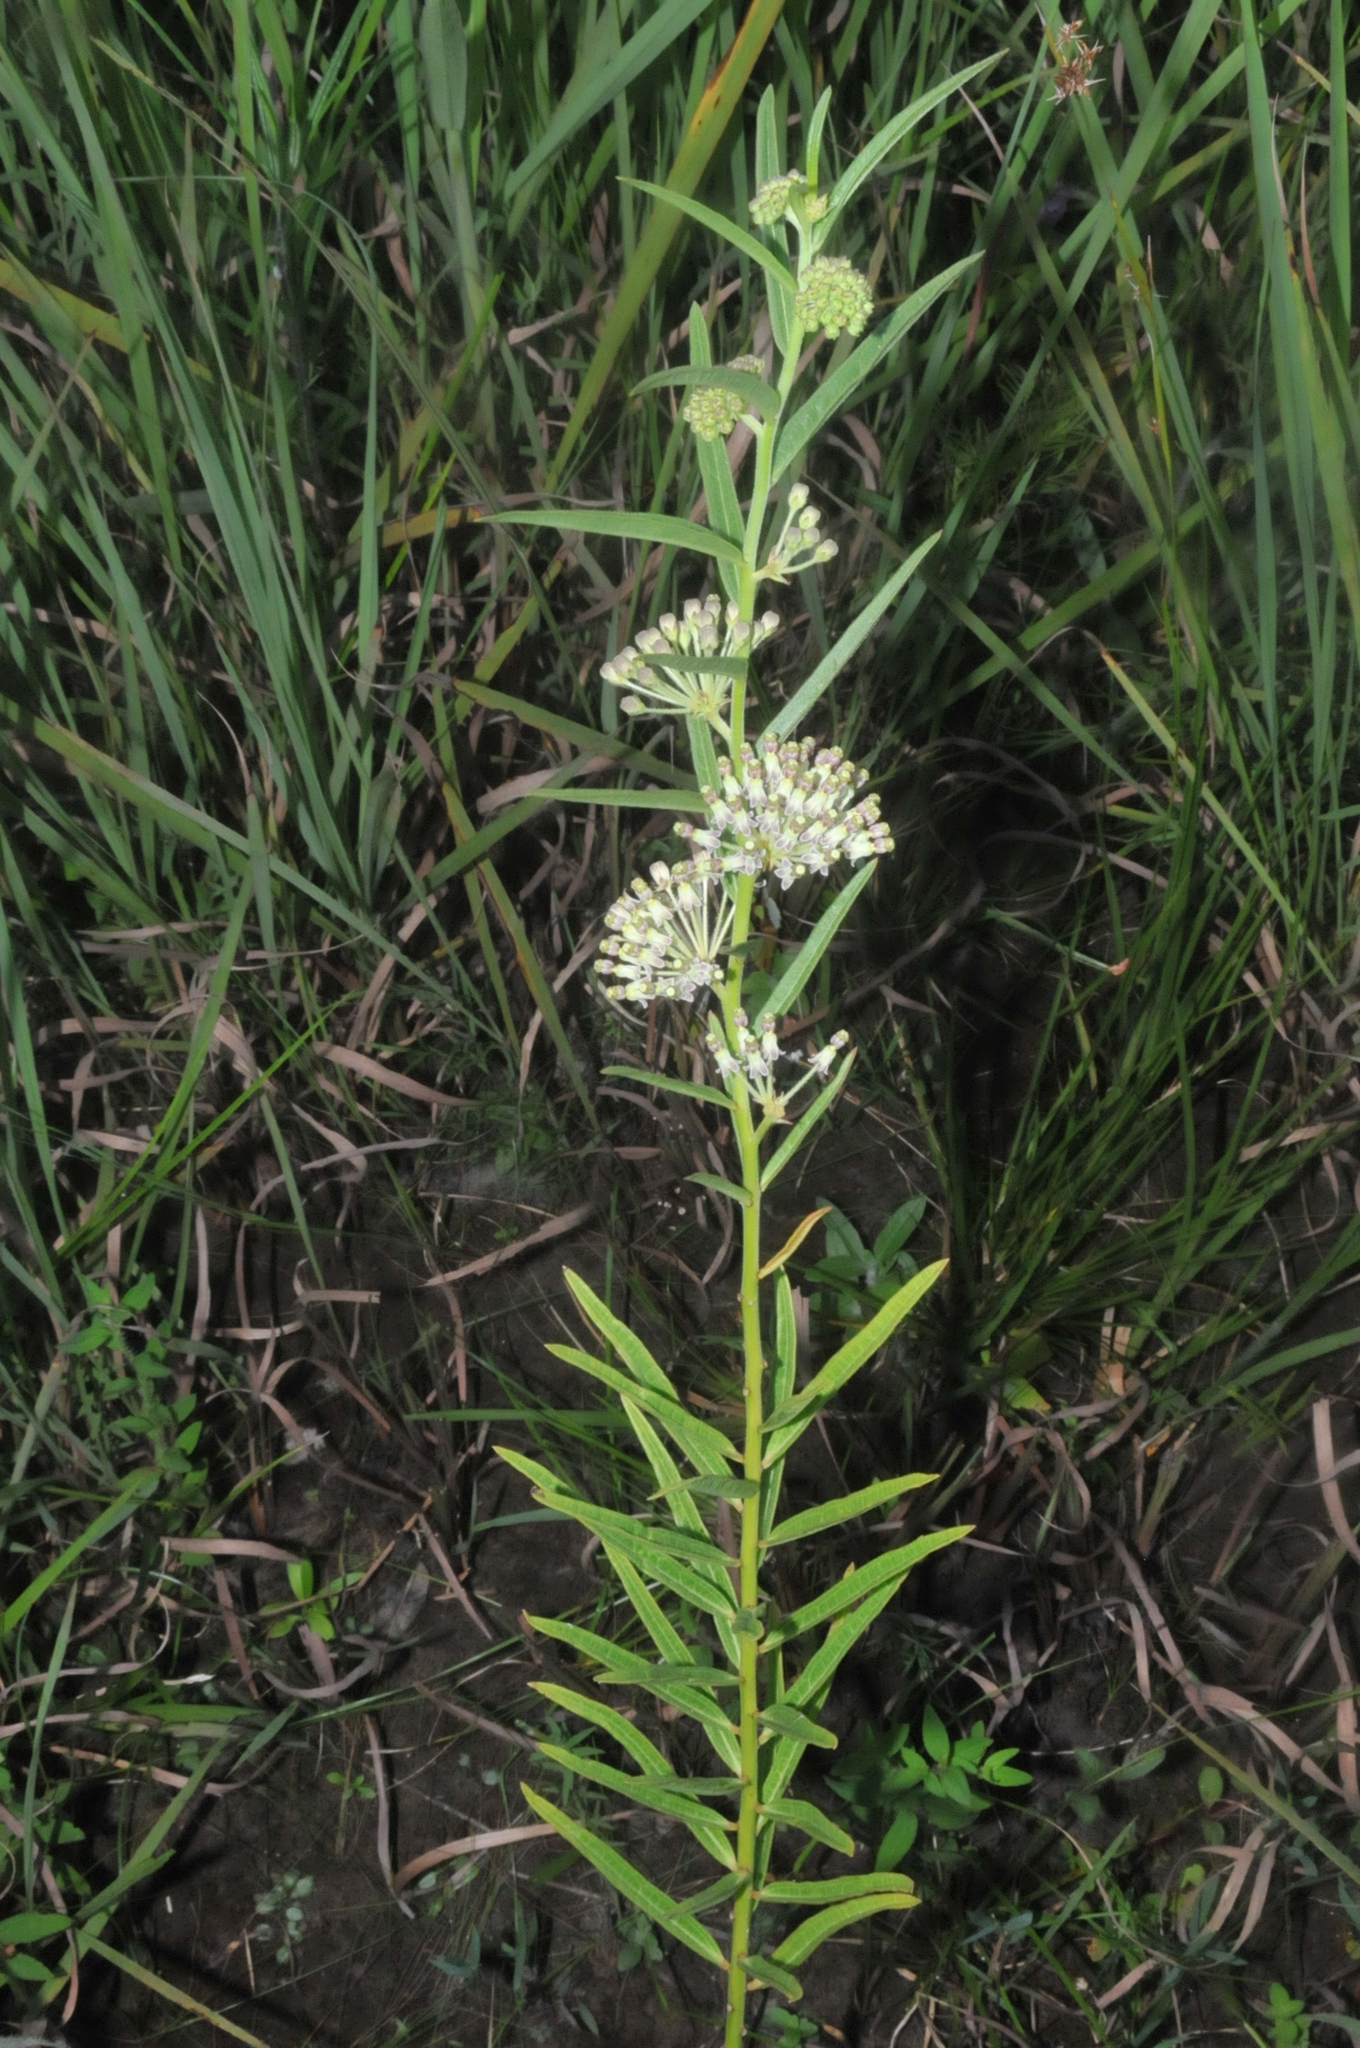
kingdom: Plantae
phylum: Tracheophyta
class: Magnoliopsida
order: Gentianales
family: Apocynaceae
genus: Asclepias
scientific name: Asclepias hirtella
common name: Prairie milkweed
